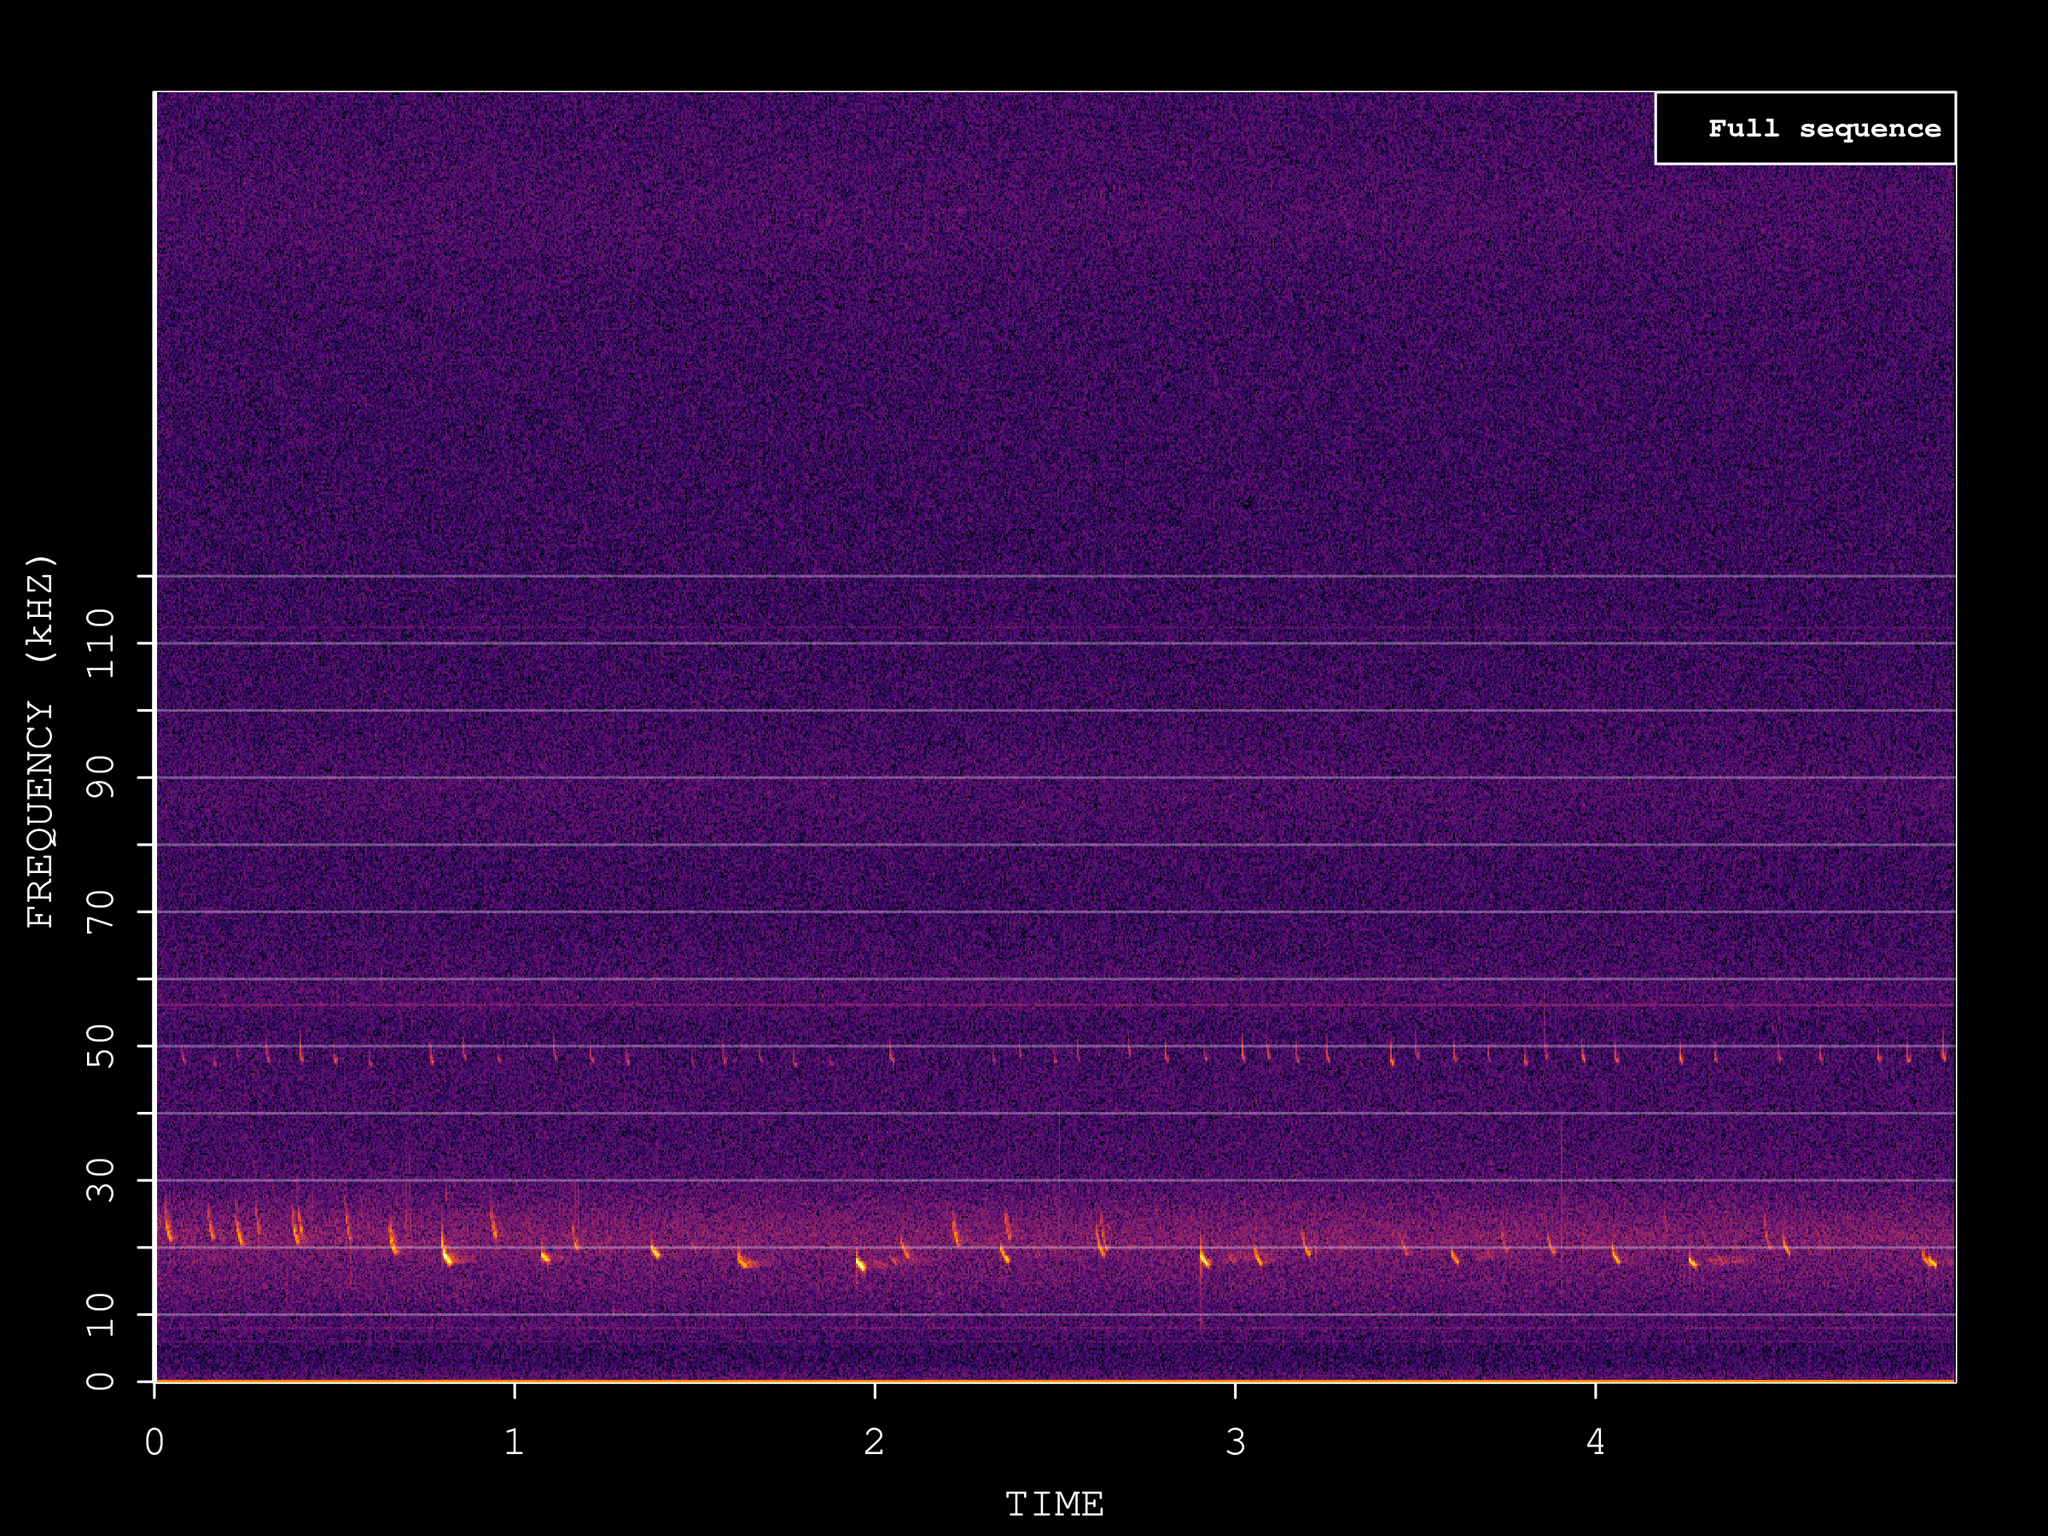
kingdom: Animalia
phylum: Chordata
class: Mammalia
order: Chiroptera
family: Vespertilionidae
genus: Nyctalus
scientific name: Nyctalus noctula
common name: Noctule
